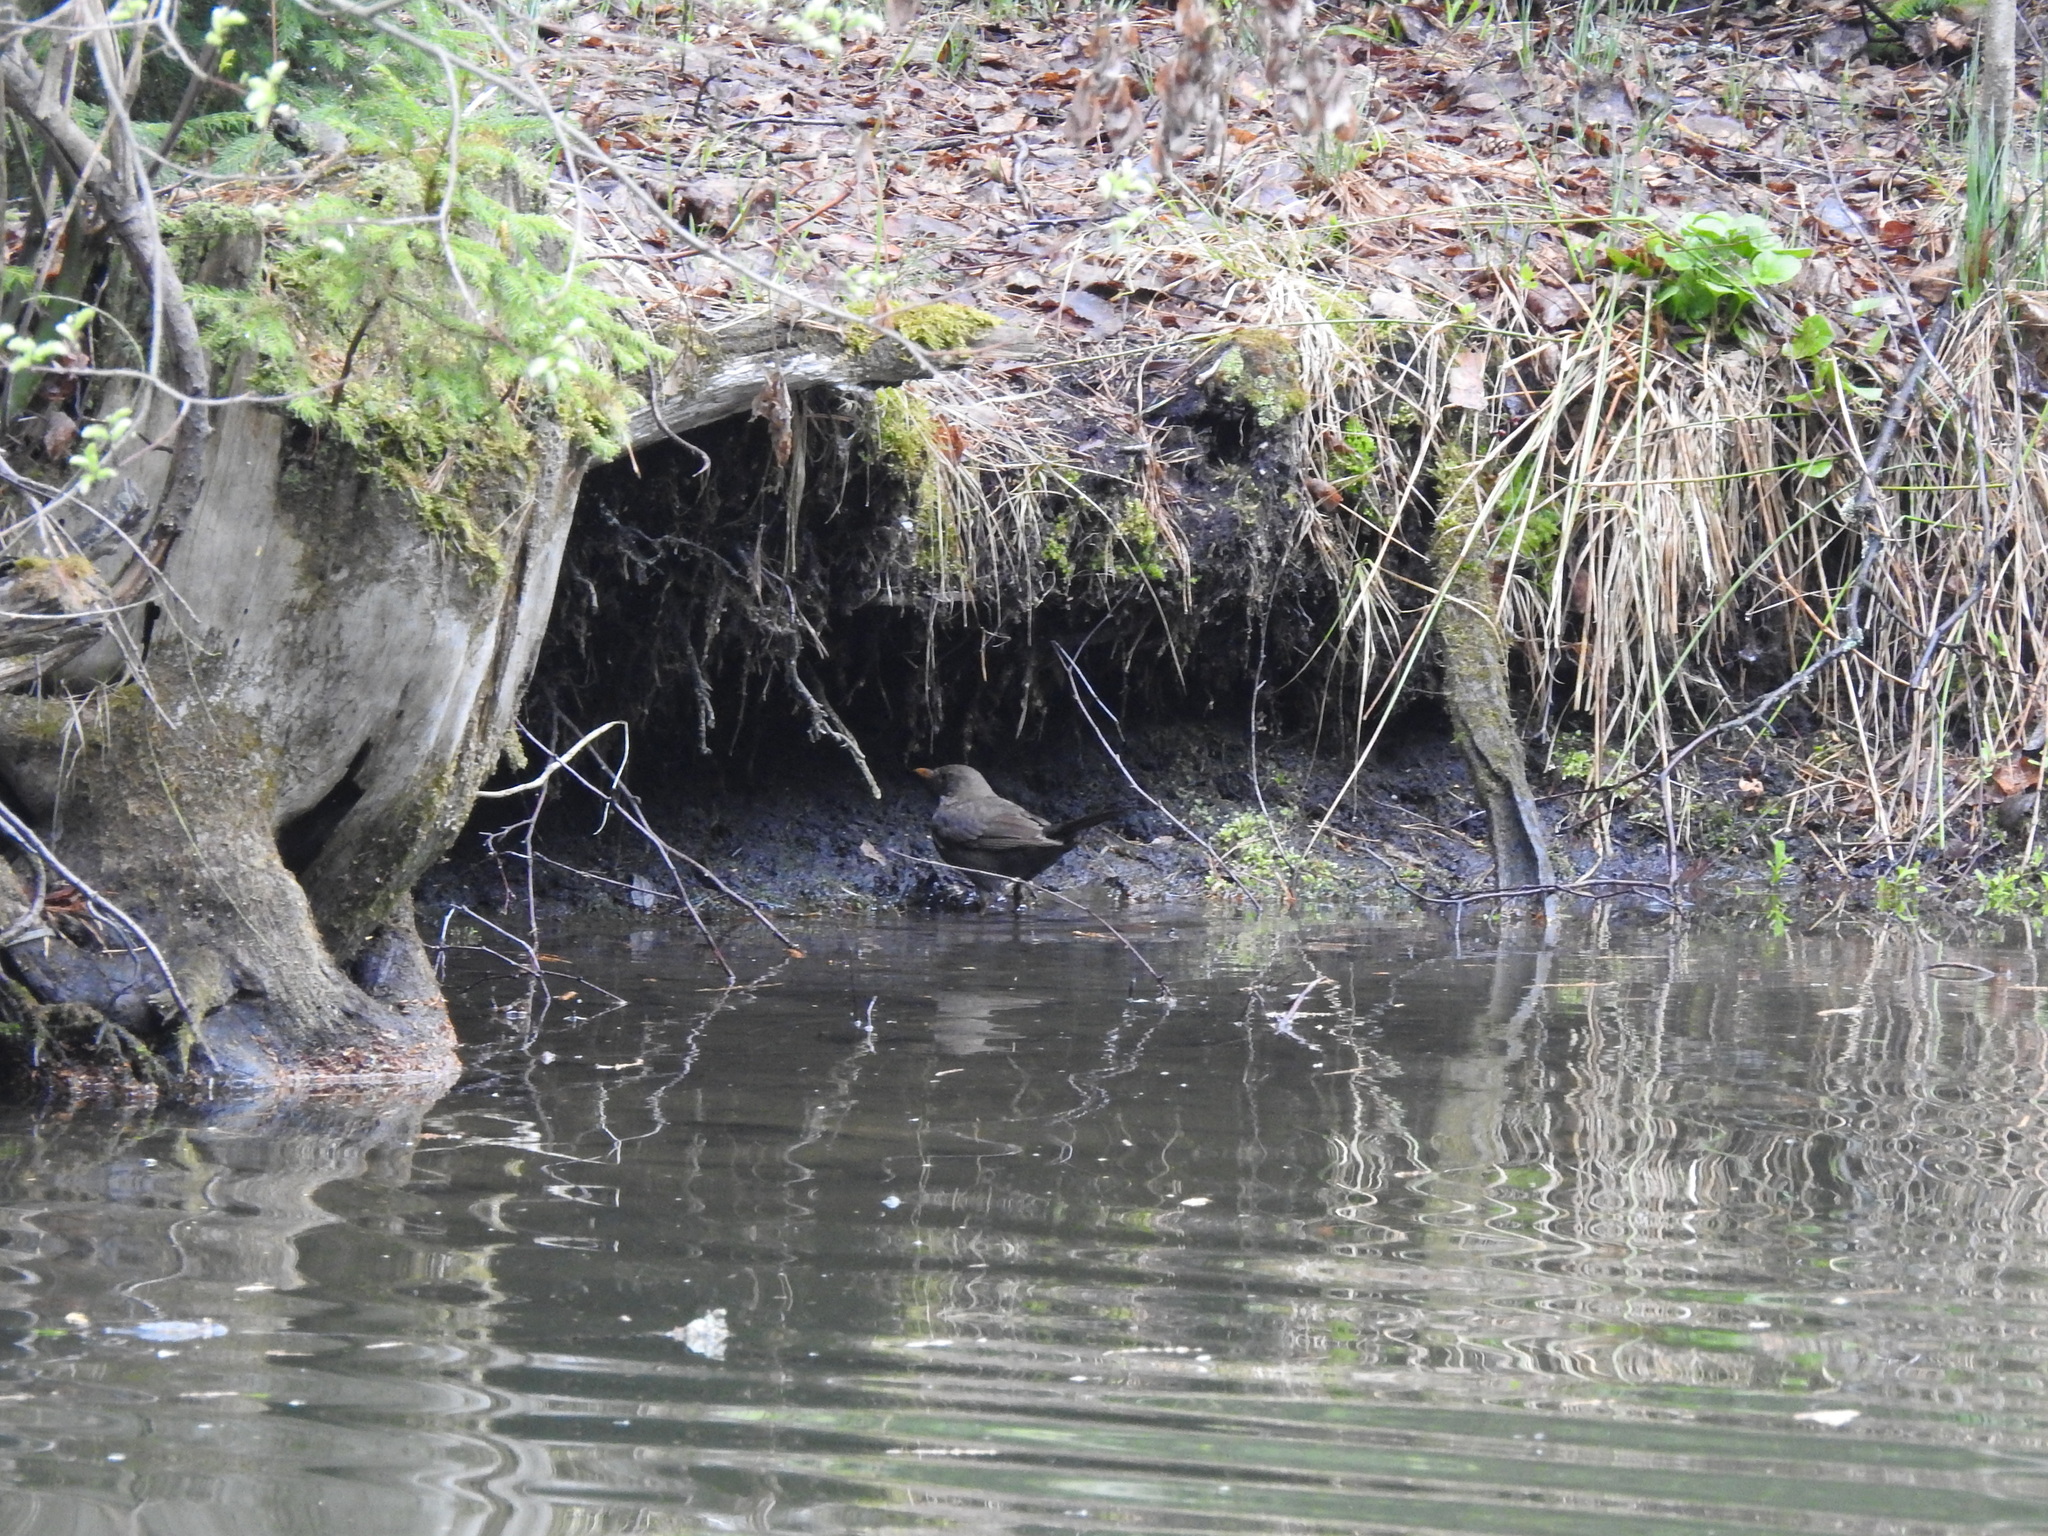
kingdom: Animalia
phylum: Chordata
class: Aves
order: Passeriformes
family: Turdidae
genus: Turdus
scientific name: Turdus merula
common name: Common blackbird
